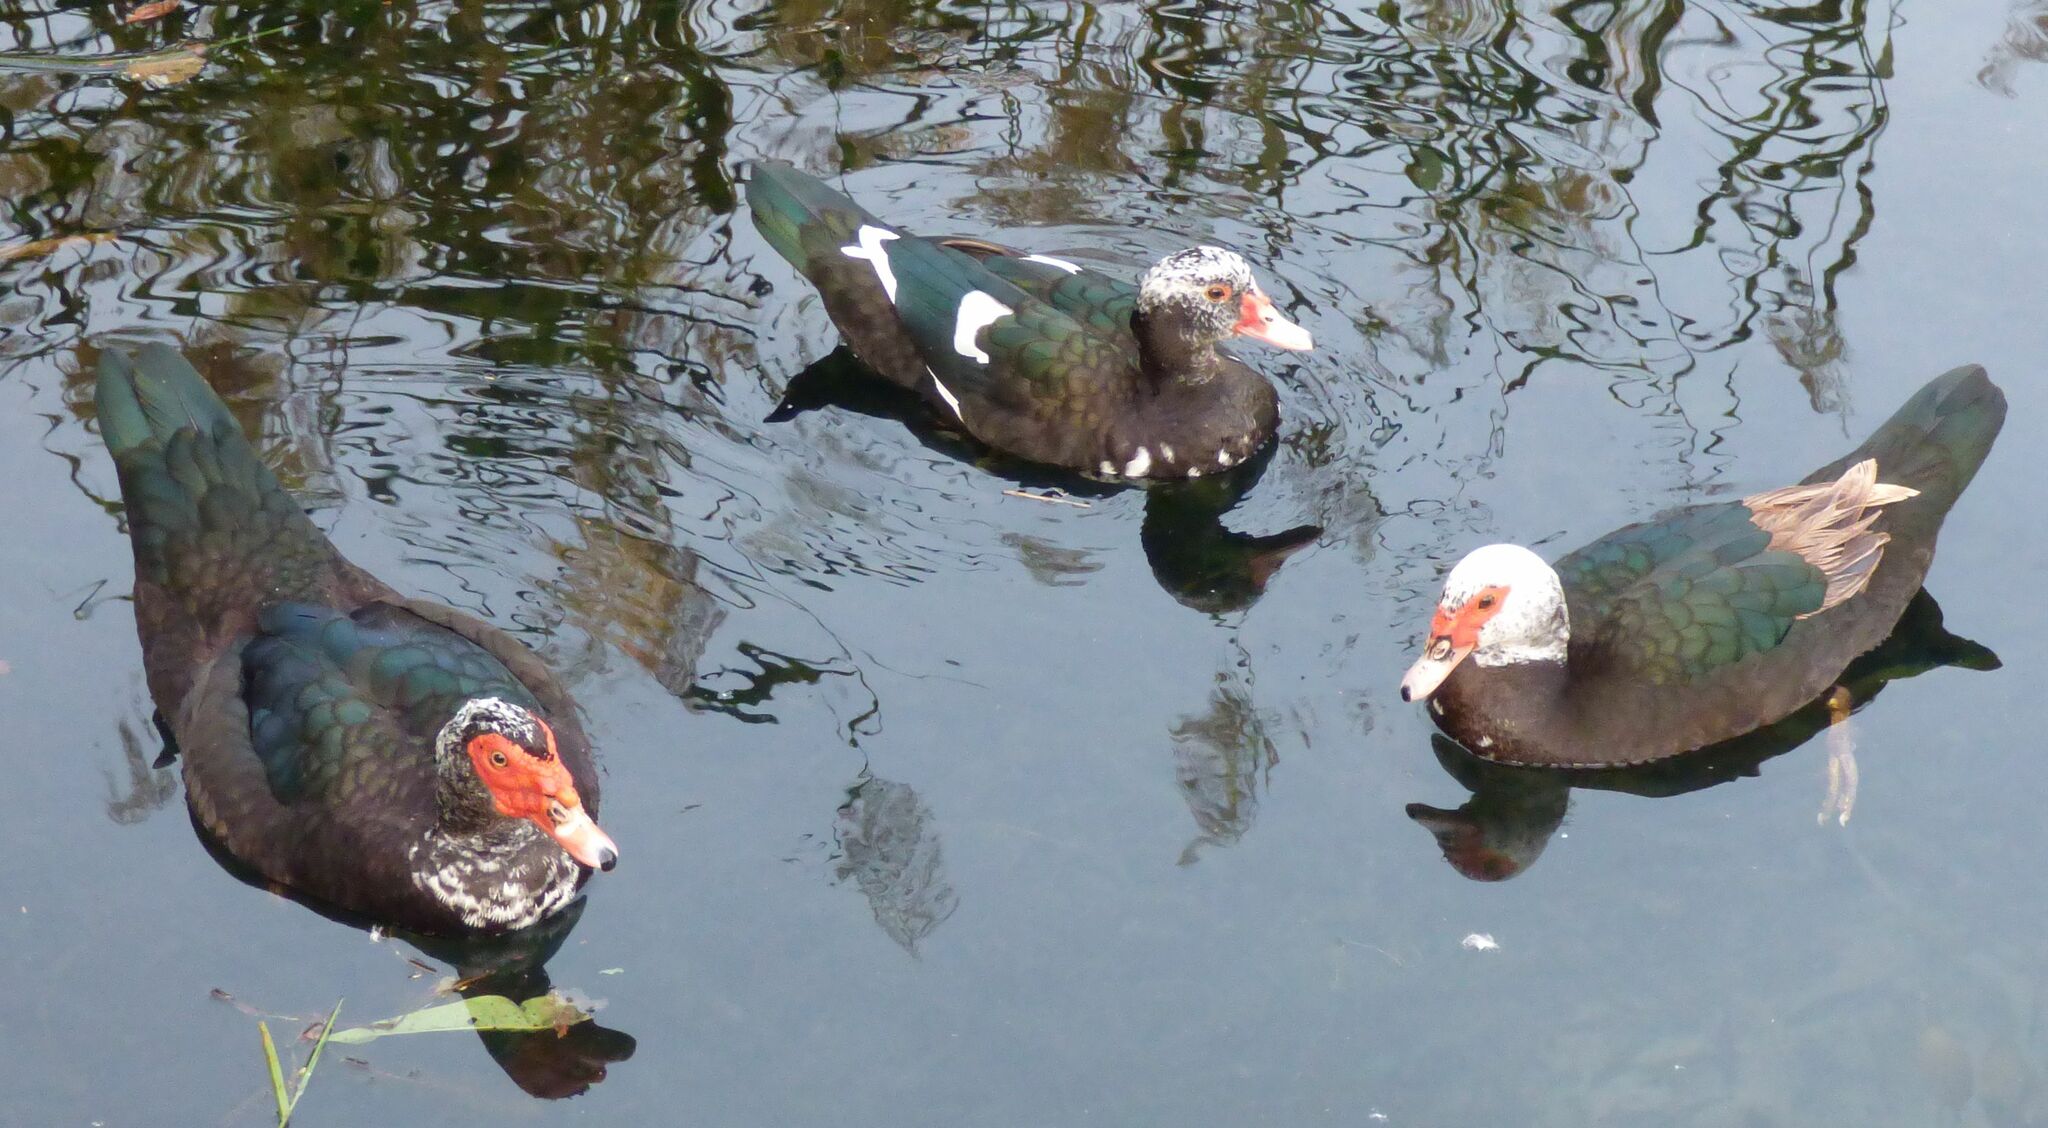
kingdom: Animalia
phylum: Chordata
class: Aves
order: Anseriformes
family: Anatidae
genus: Cairina
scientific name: Cairina moschata
